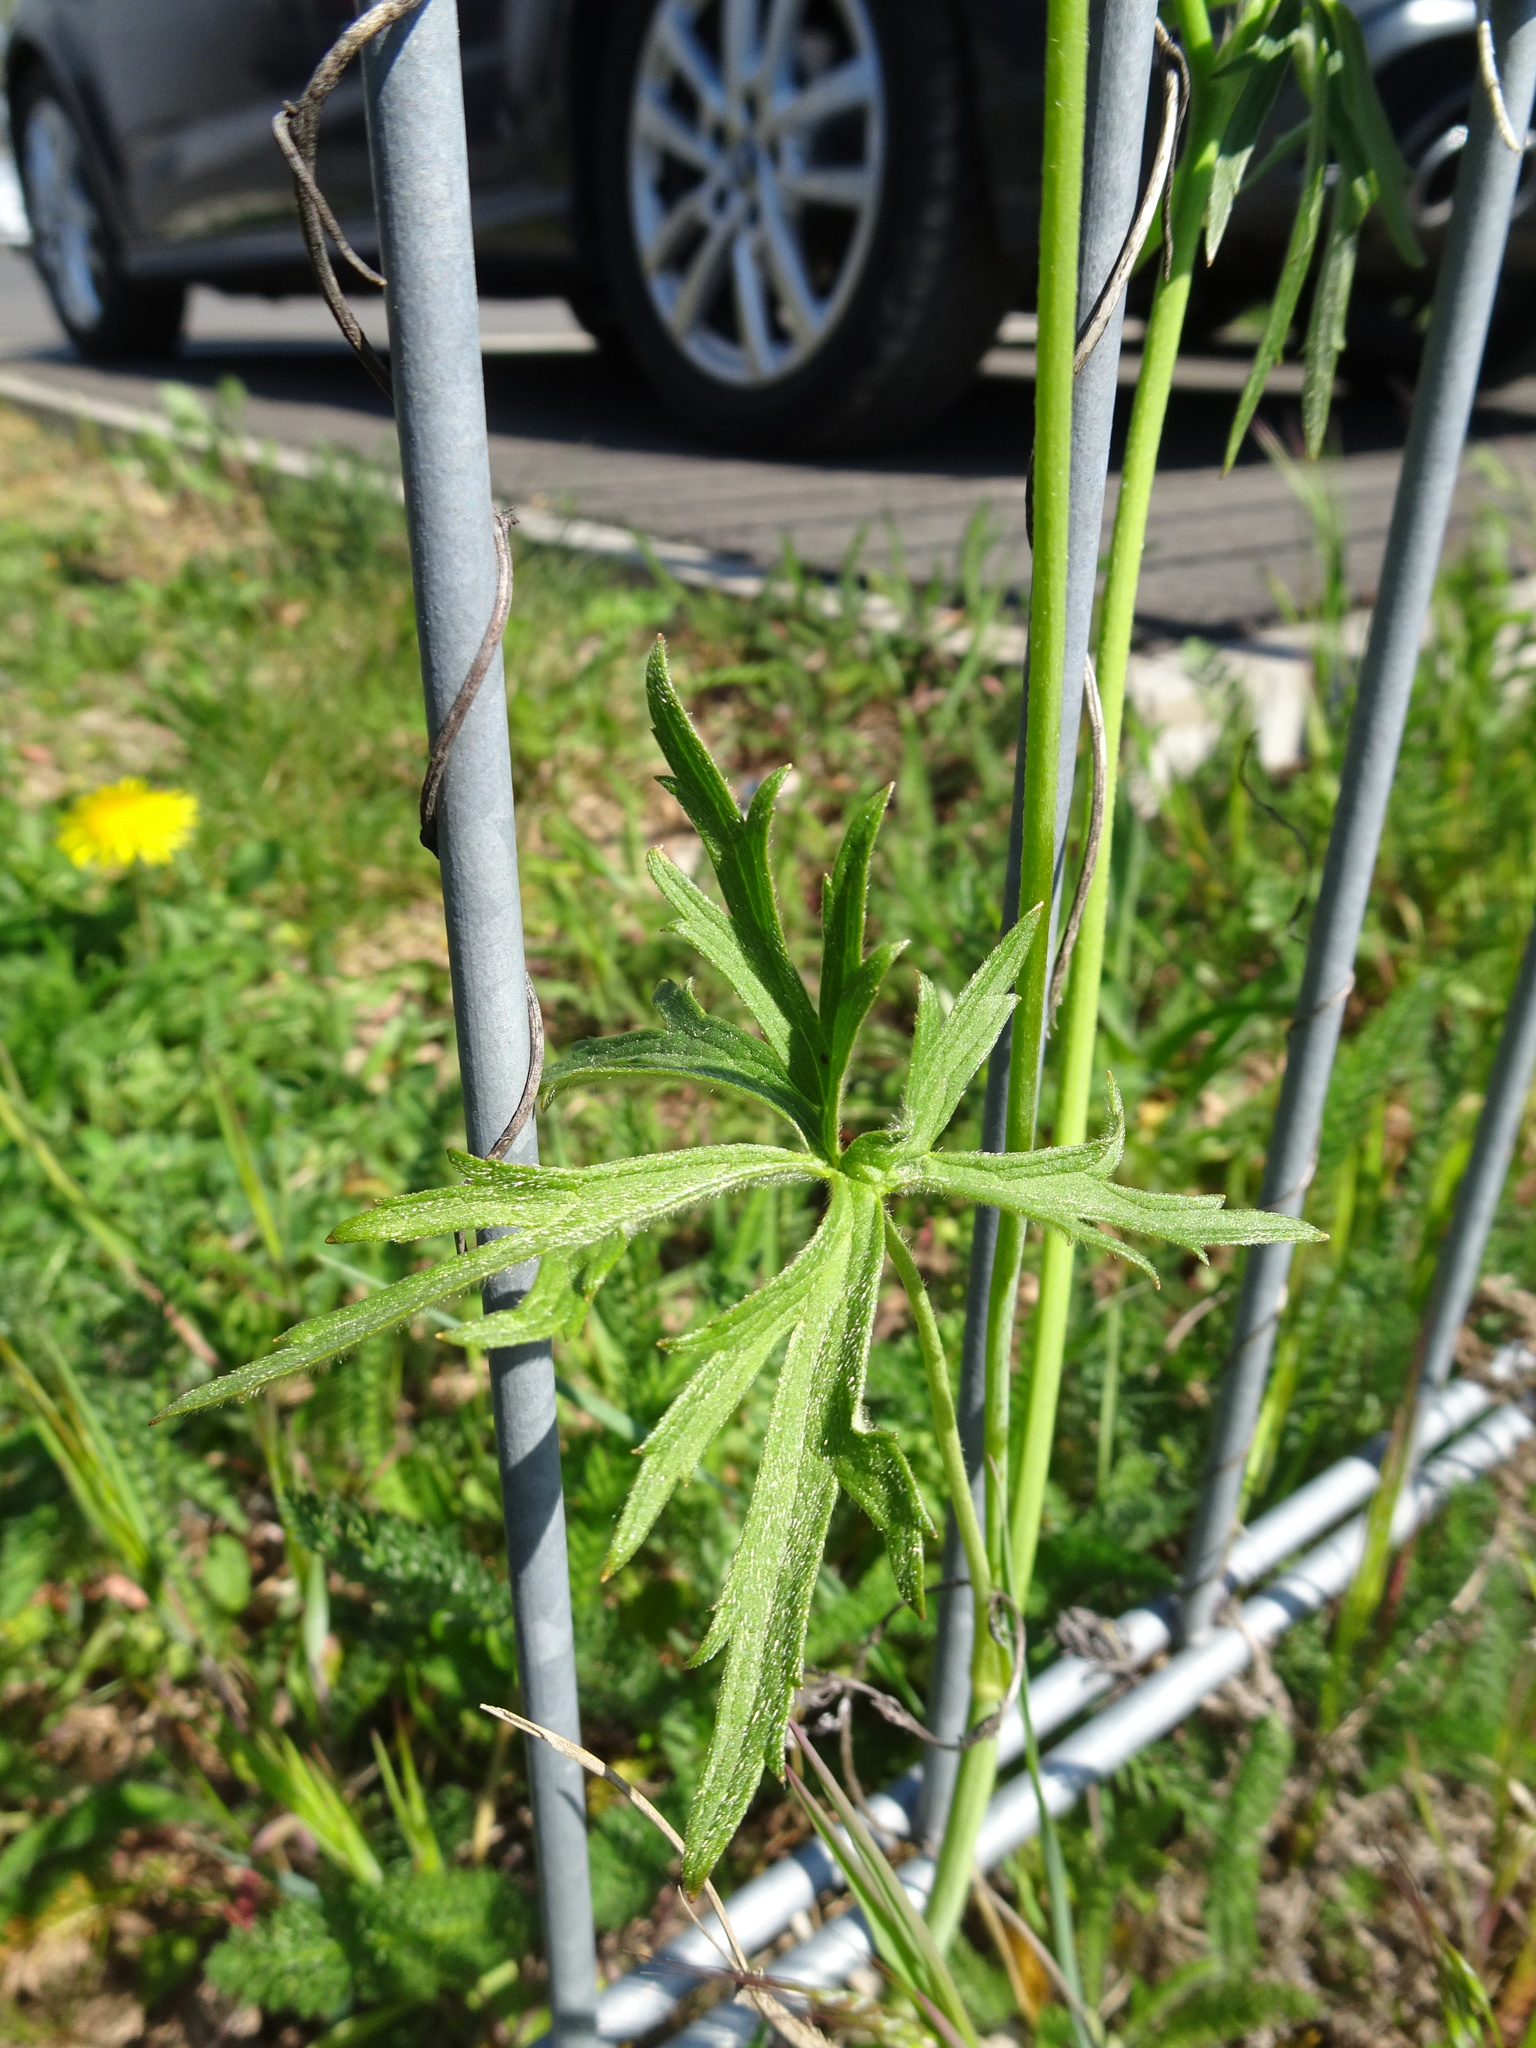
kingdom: Plantae
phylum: Tracheophyta
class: Magnoliopsida
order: Ranunculales
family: Ranunculaceae
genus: Ranunculus
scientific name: Ranunculus acris
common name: Meadow buttercup
